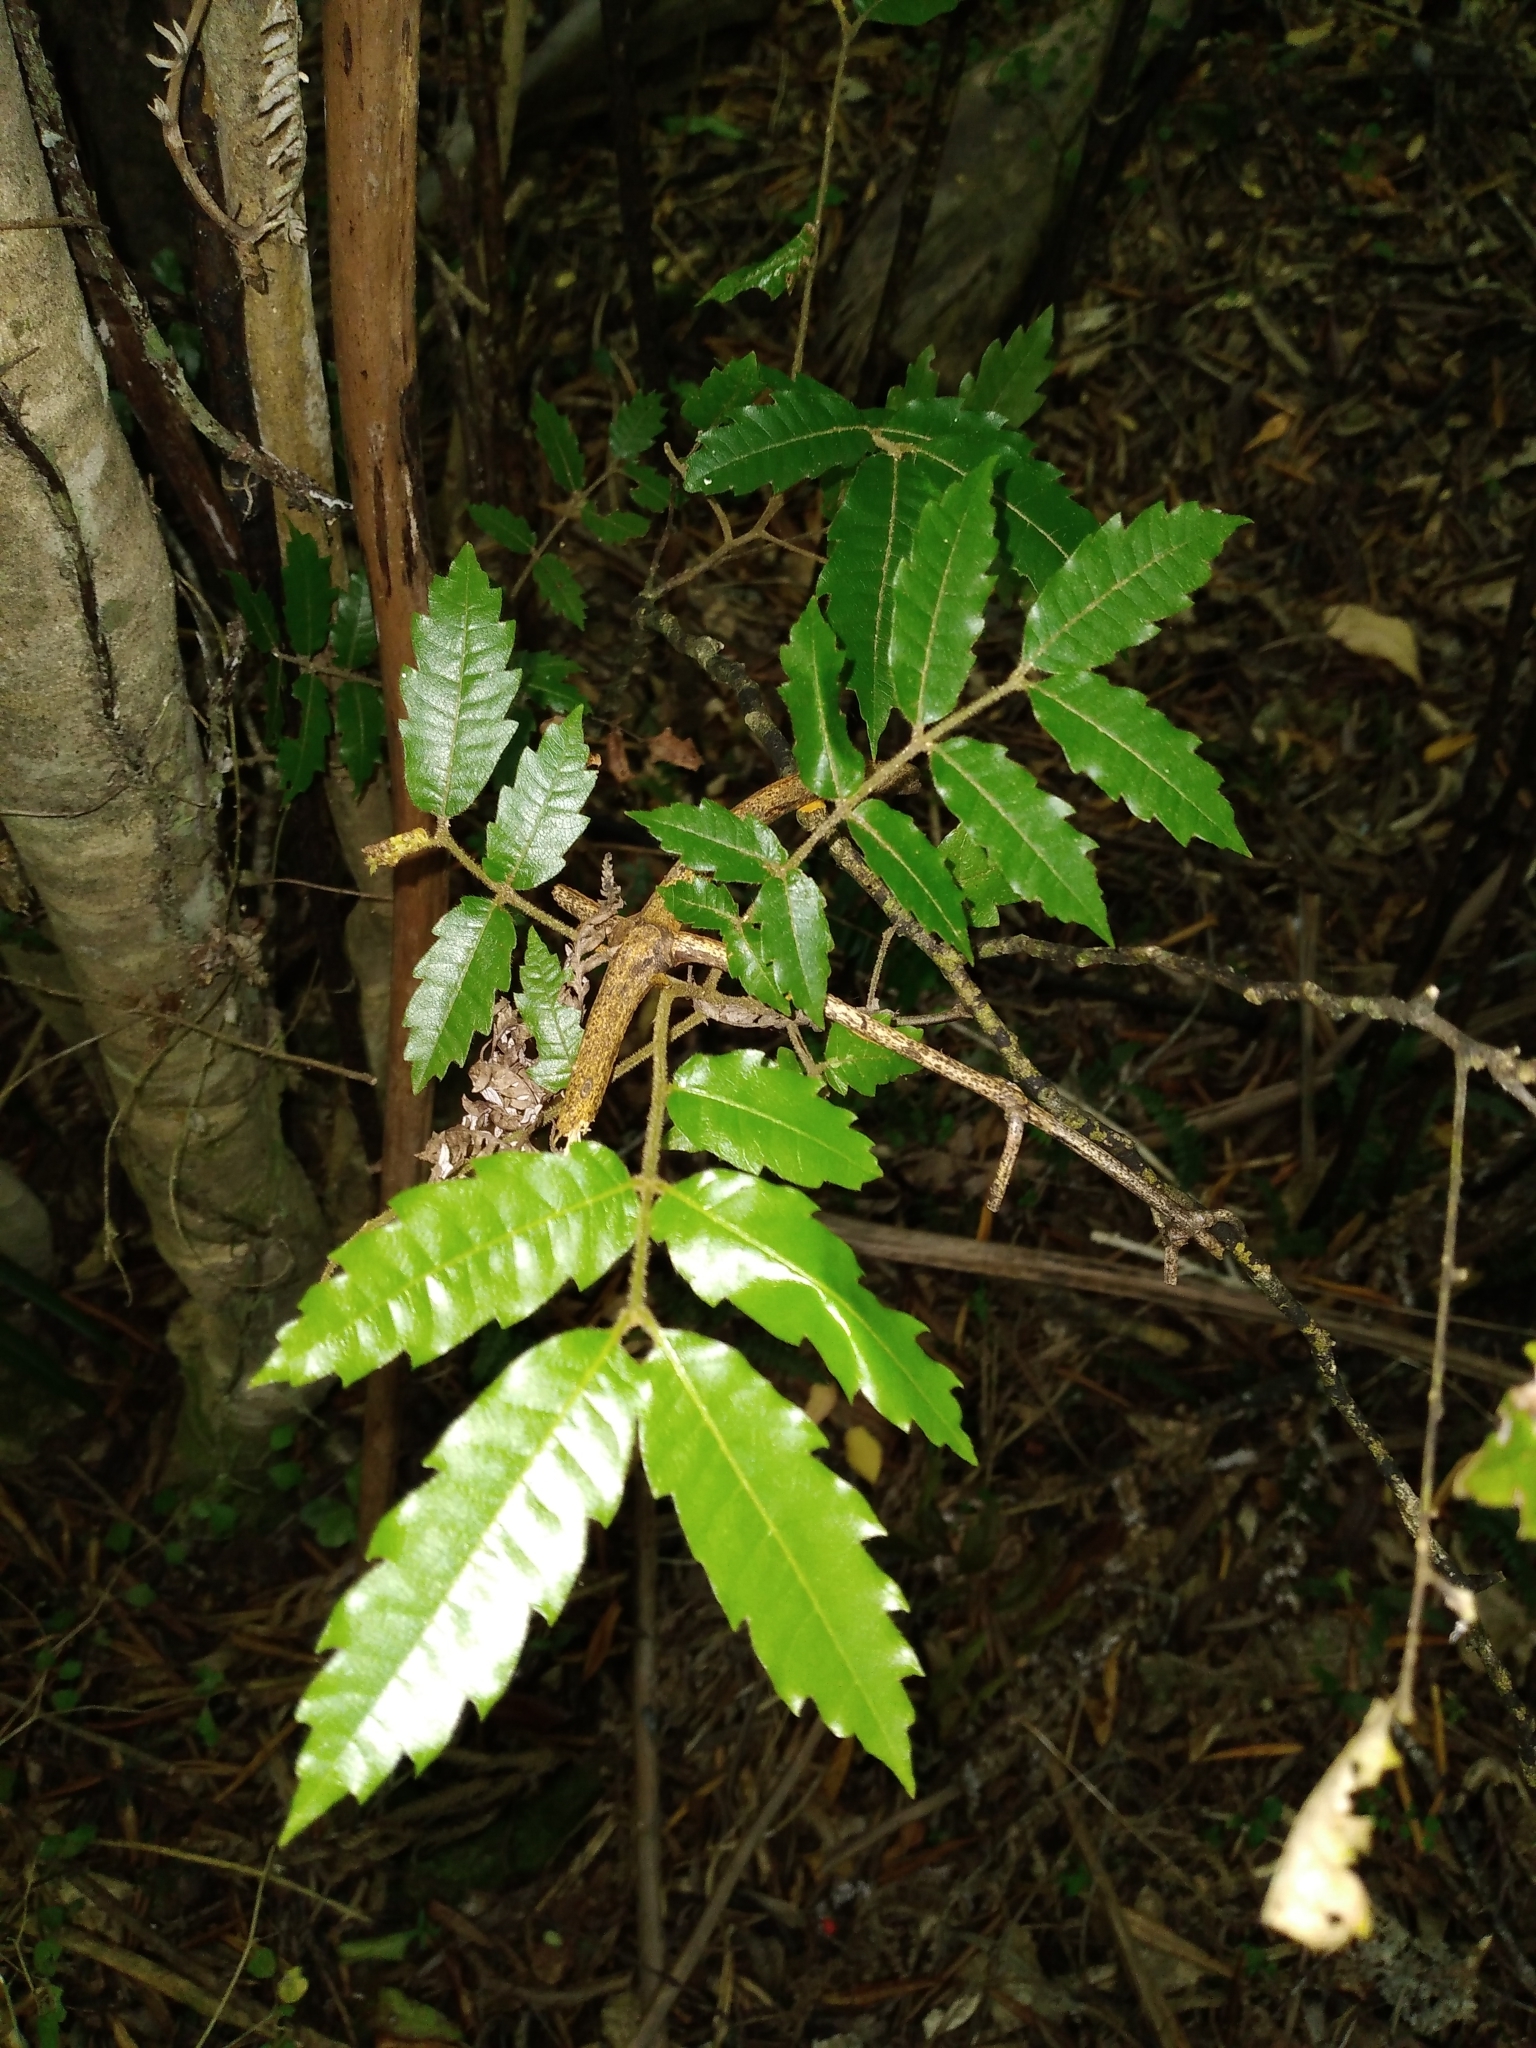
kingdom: Plantae
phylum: Tracheophyta
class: Magnoliopsida
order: Sapindales
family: Sapindaceae
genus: Alectryon
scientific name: Alectryon excelsus
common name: Three kings titoki
